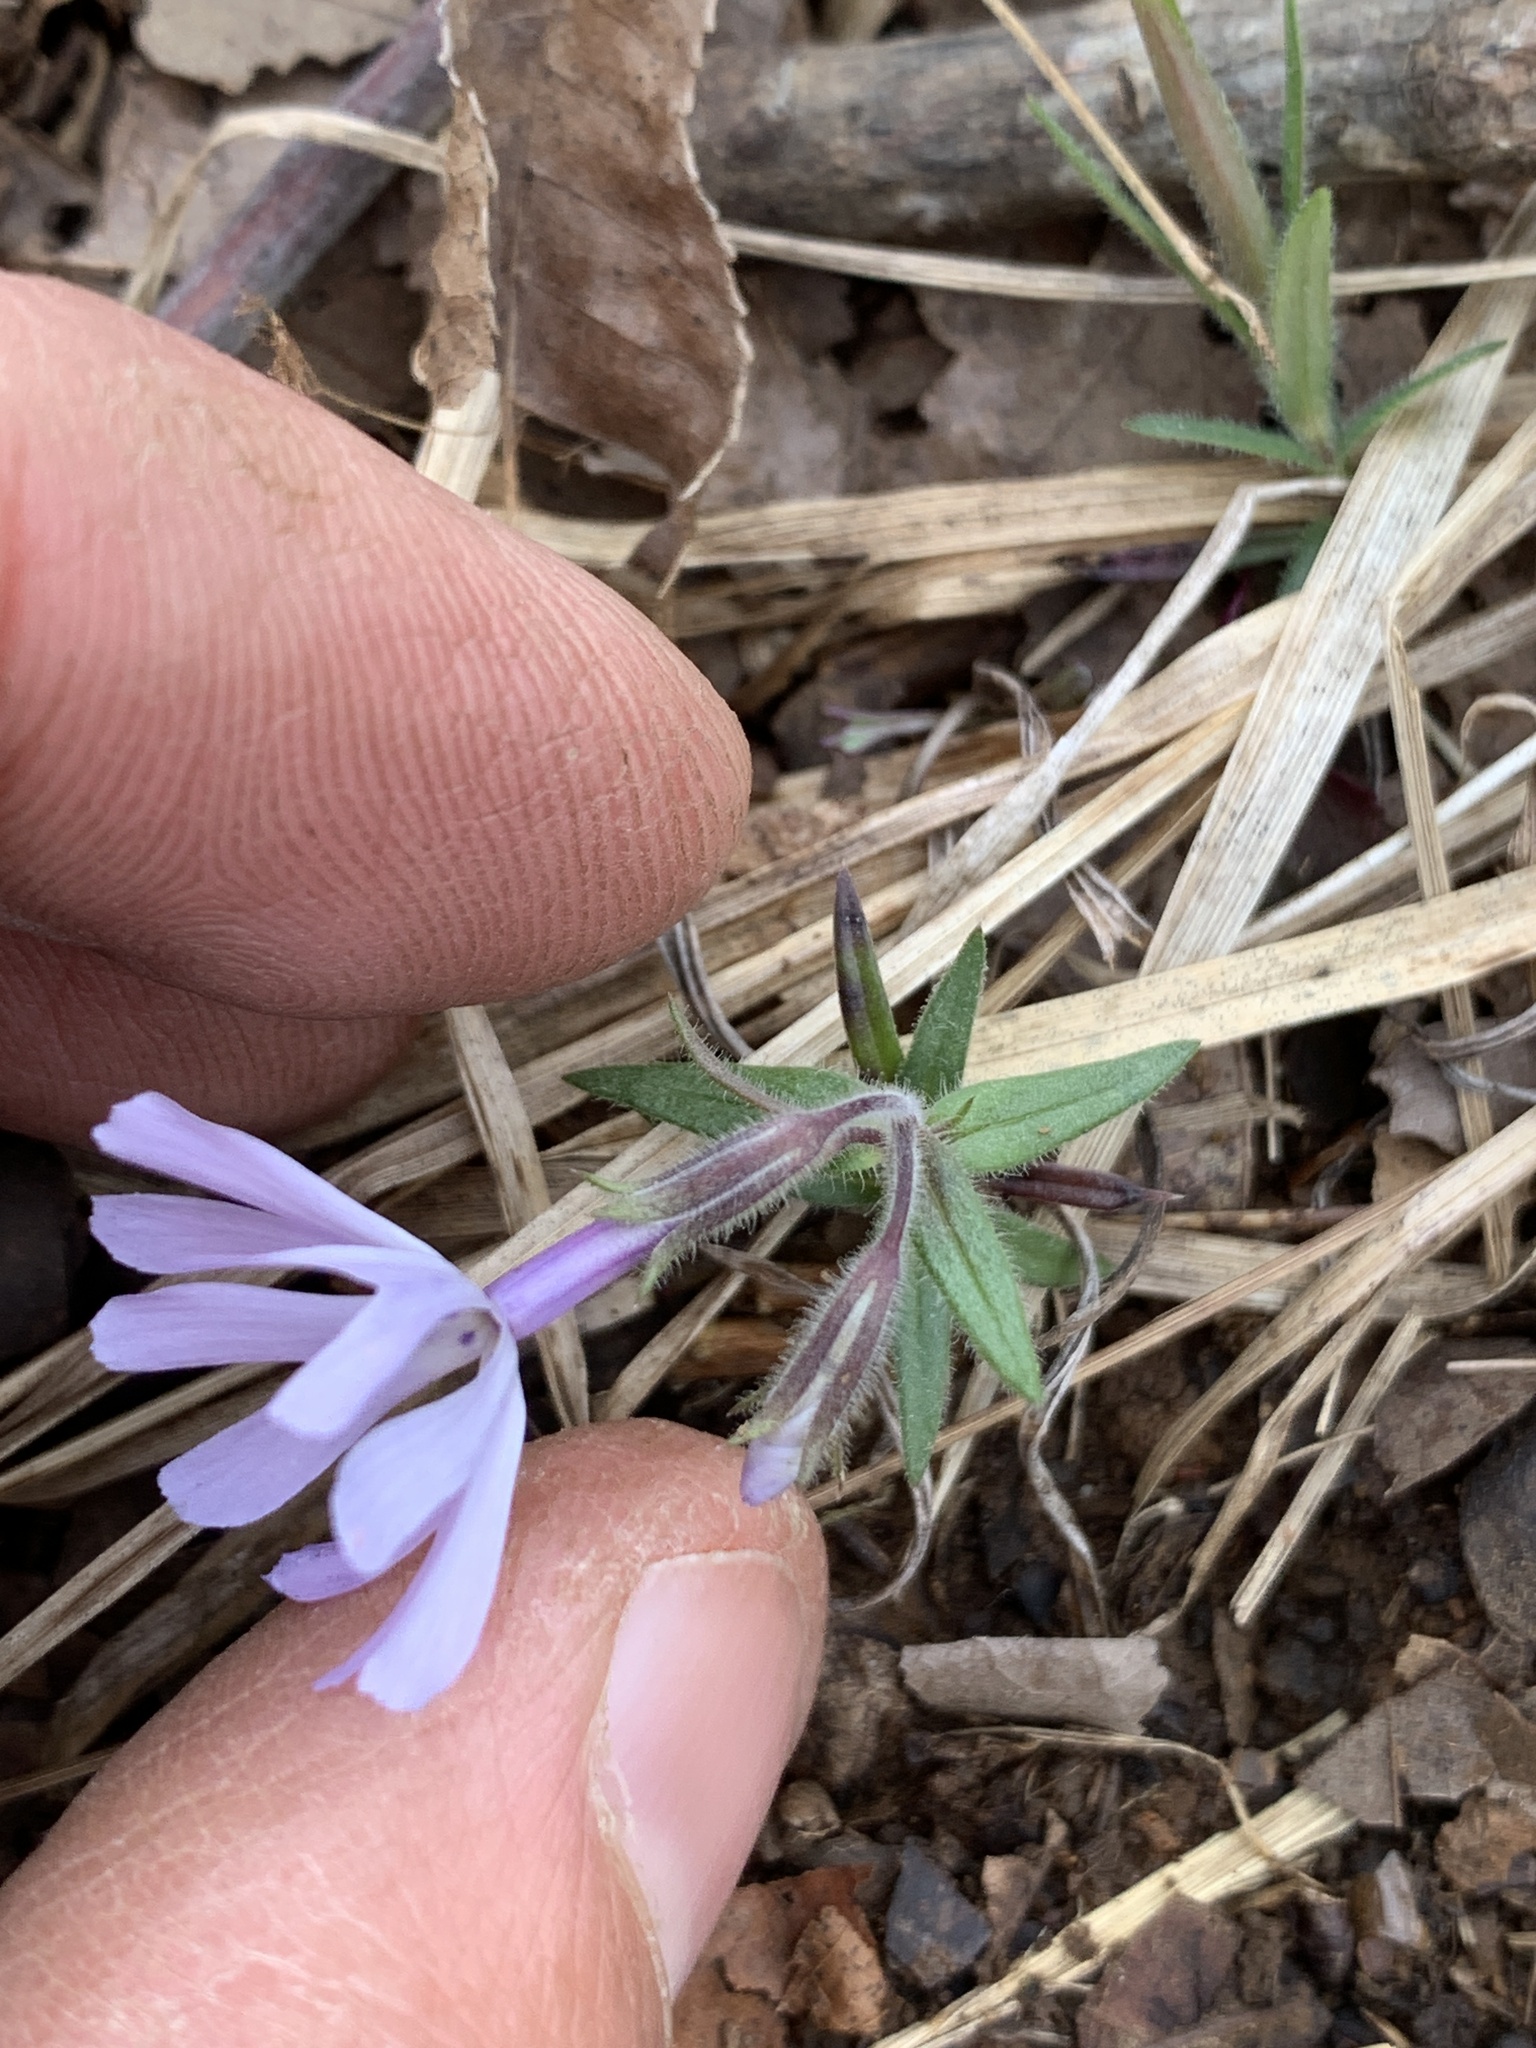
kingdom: Plantae
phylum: Tracheophyta
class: Magnoliopsida
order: Ericales
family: Polemoniaceae
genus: Phlox
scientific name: Phlox bifida
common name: Sand phlox
